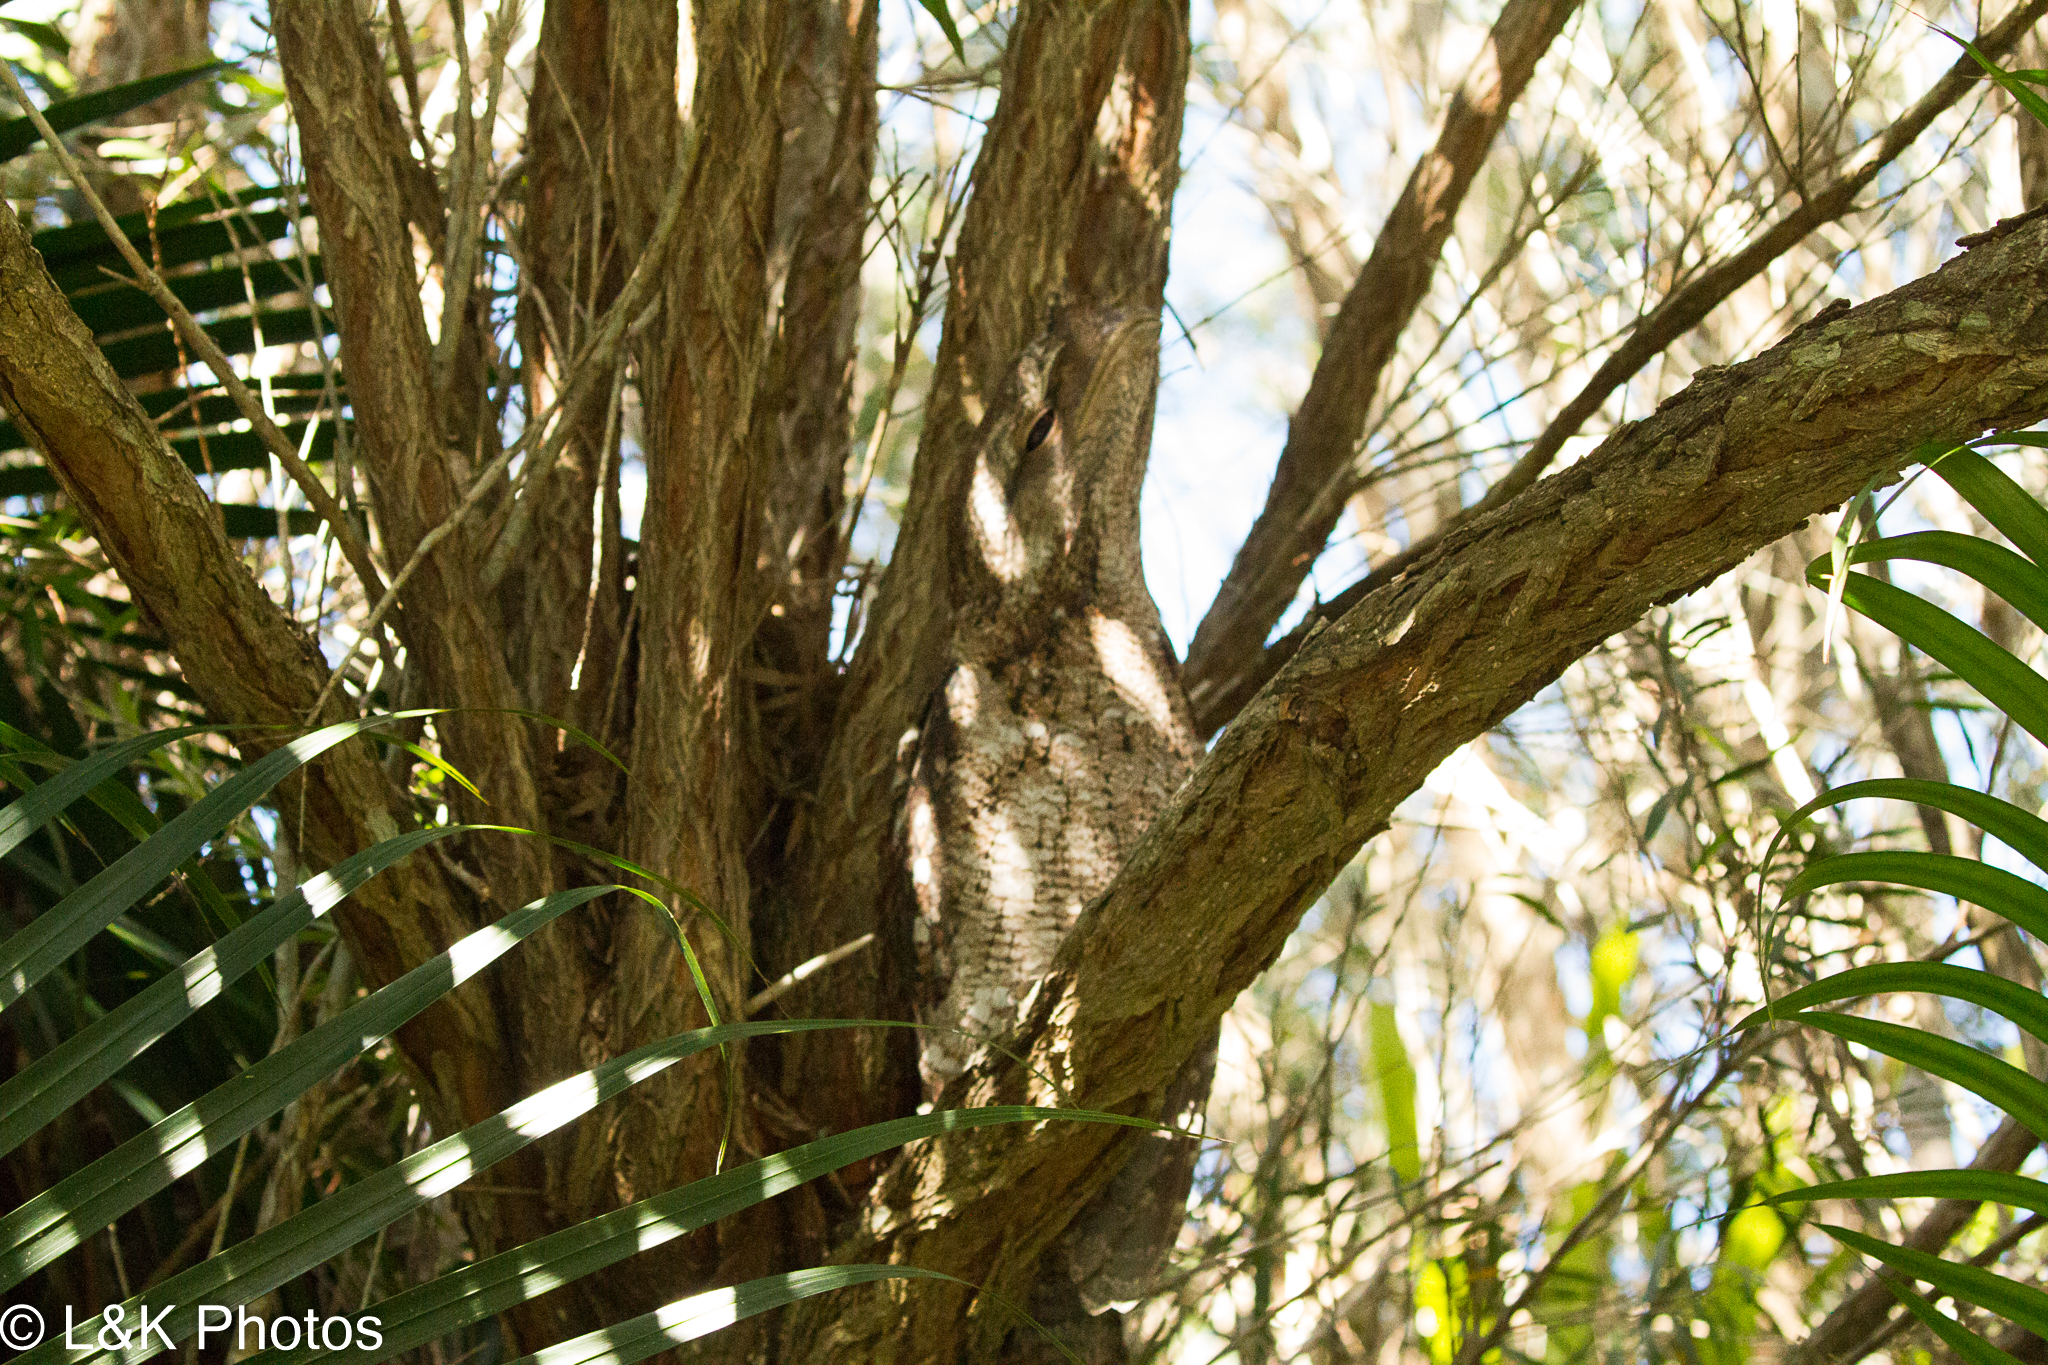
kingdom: Animalia
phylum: Chordata
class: Aves
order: Caprimulgiformes
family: Podargidae
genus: Podargus
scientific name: Podargus papuensis
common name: Papuan frogmouth
